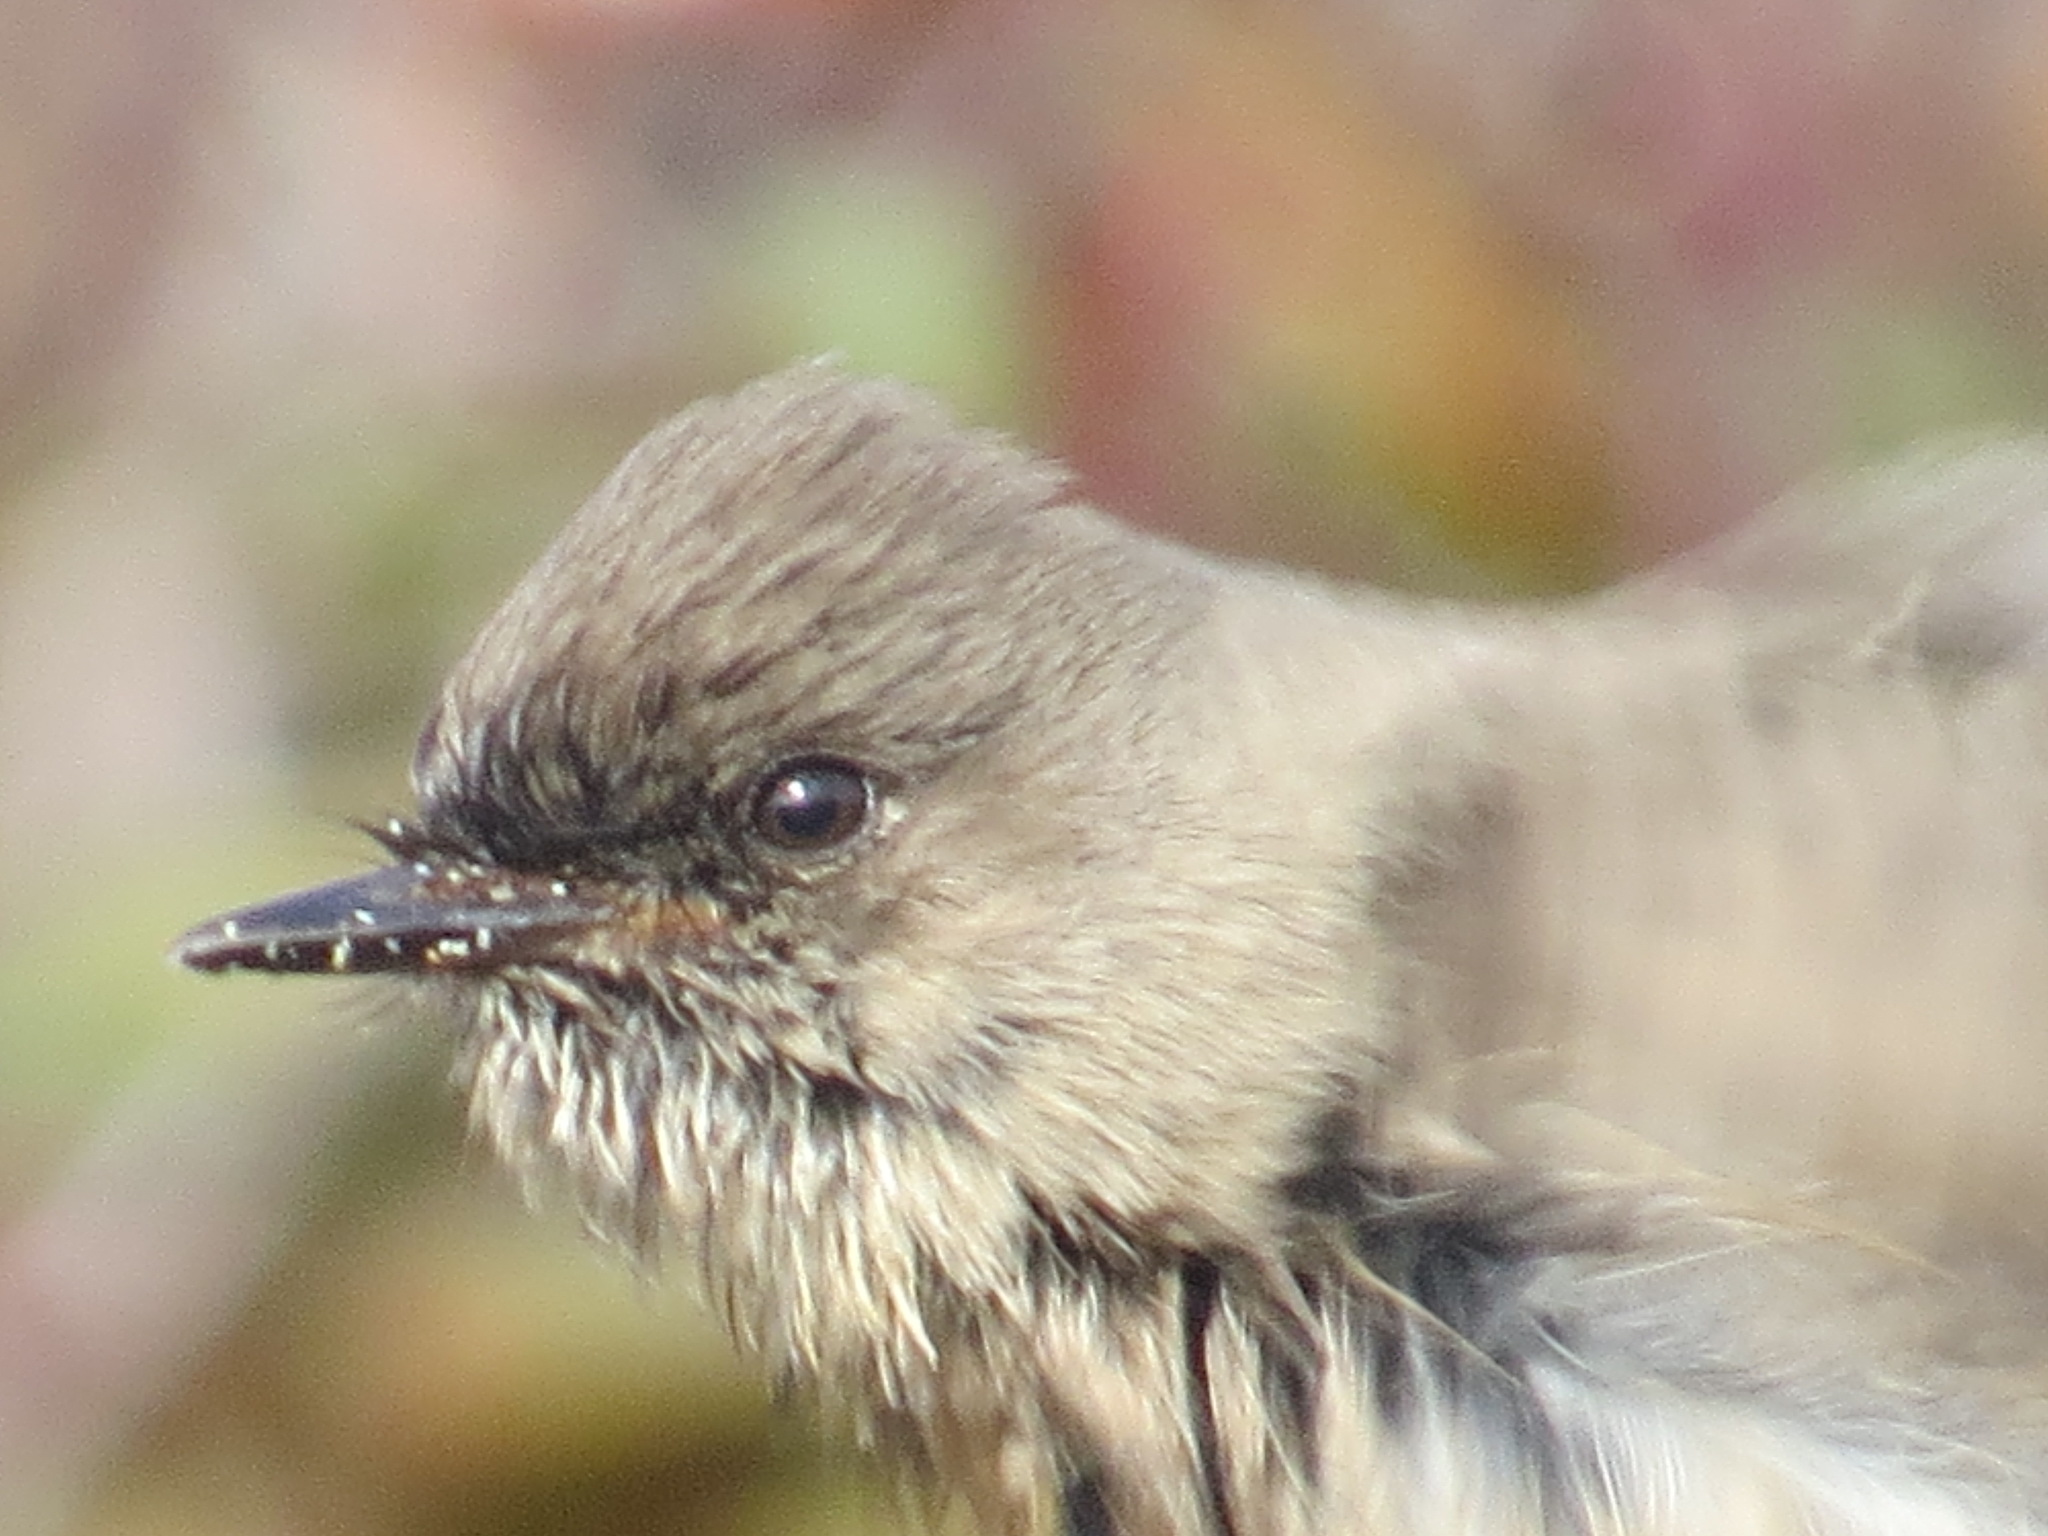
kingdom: Animalia
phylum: Chordata
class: Aves
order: Passeriformes
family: Tyrannidae
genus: Sayornis
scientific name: Sayornis saya
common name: Say's phoebe
